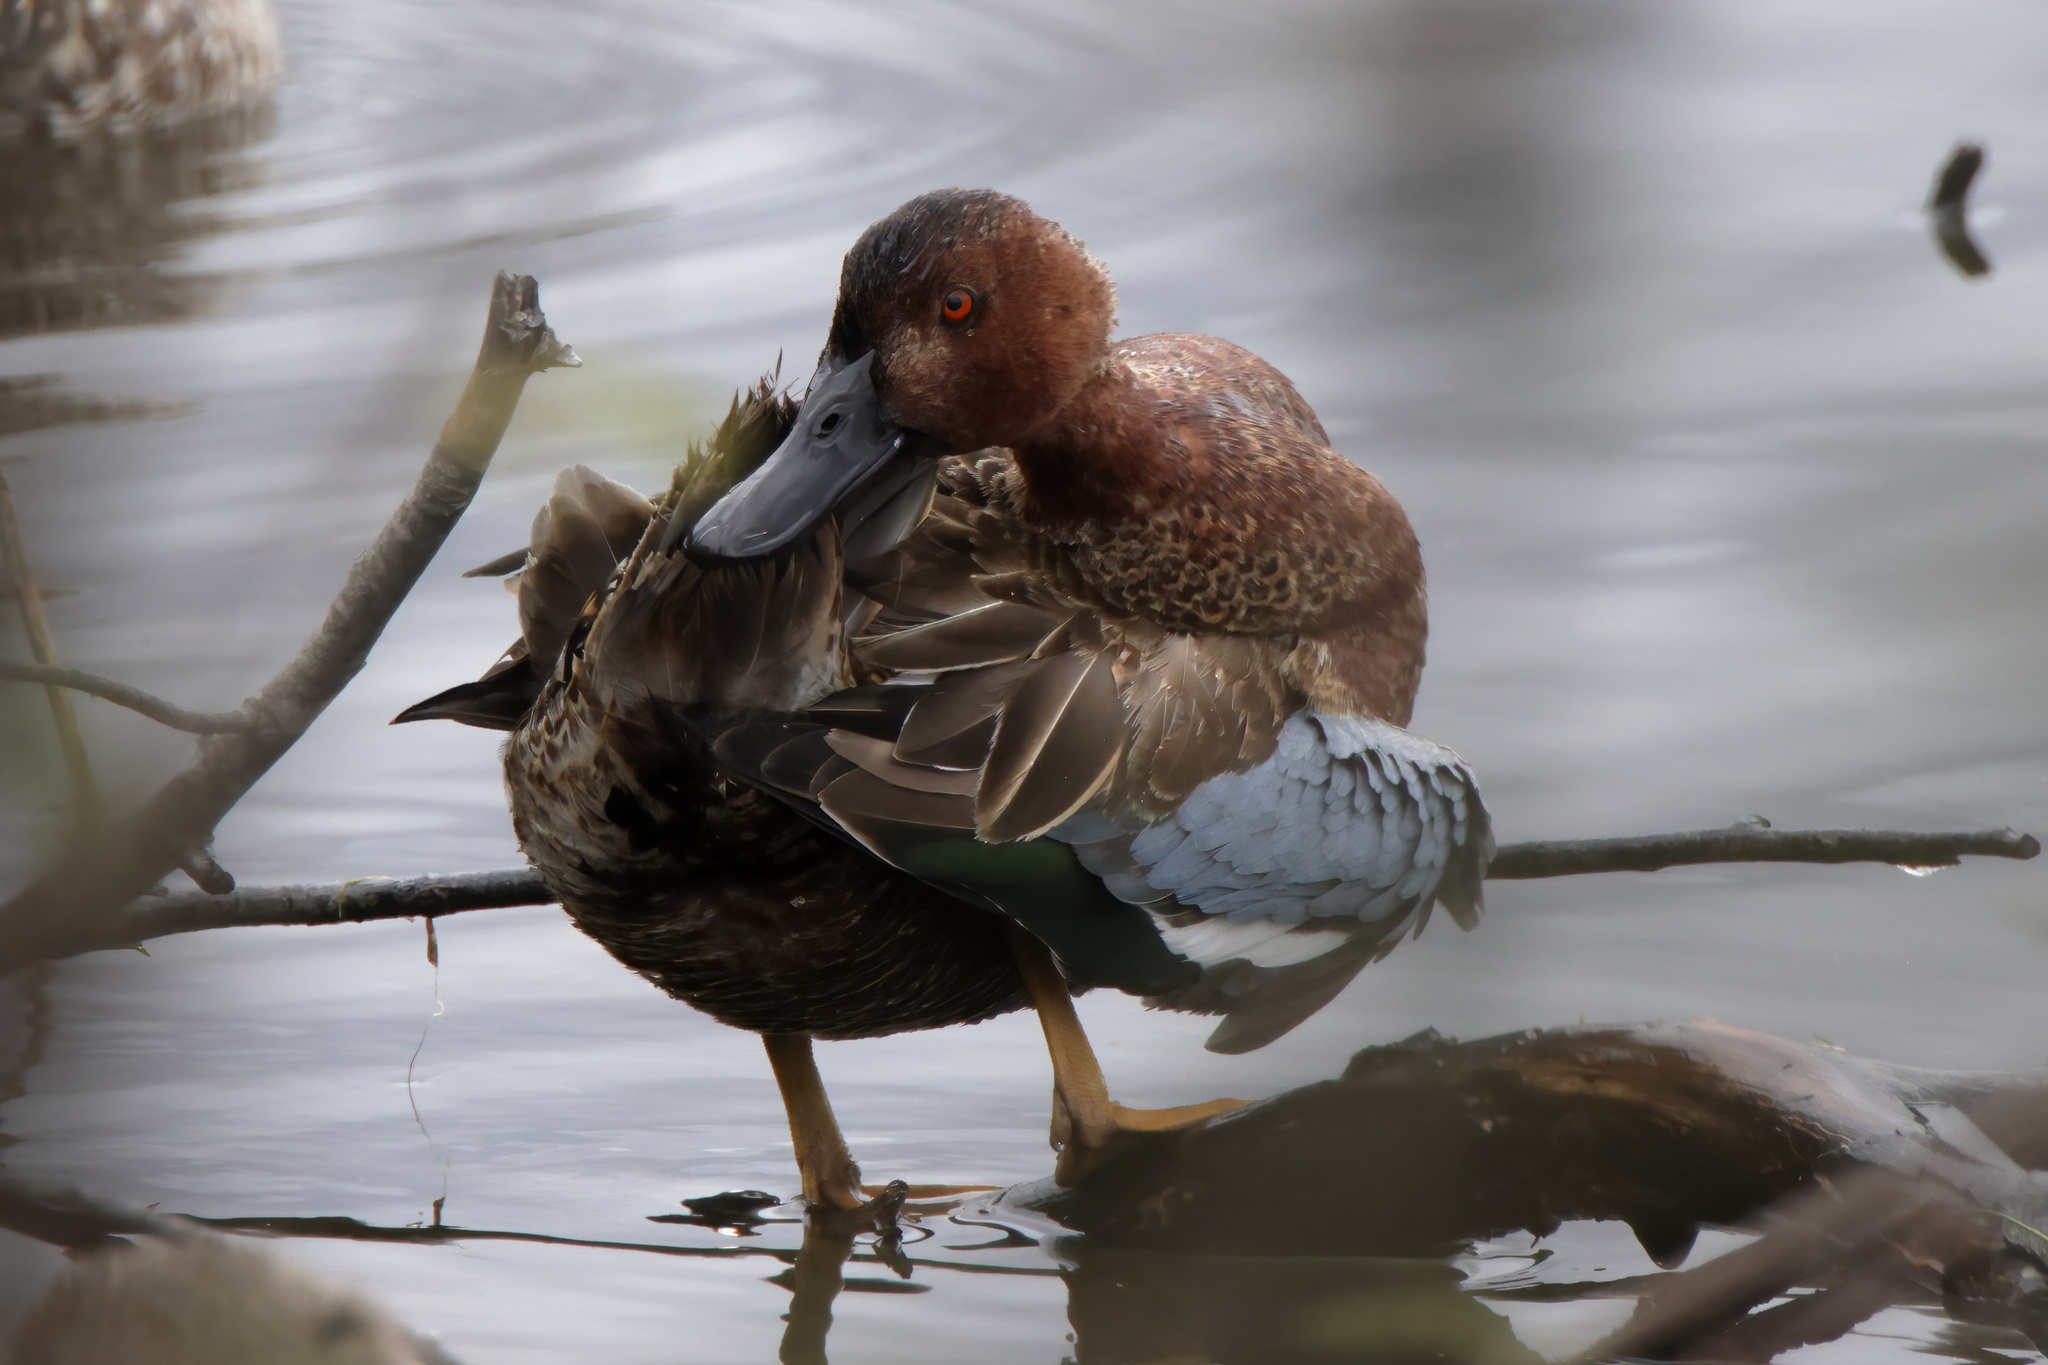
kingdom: Animalia
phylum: Chordata
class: Aves
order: Anseriformes
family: Anatidae
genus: Spatula
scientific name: Spatula cyanoptera
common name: Cinnamon teal
